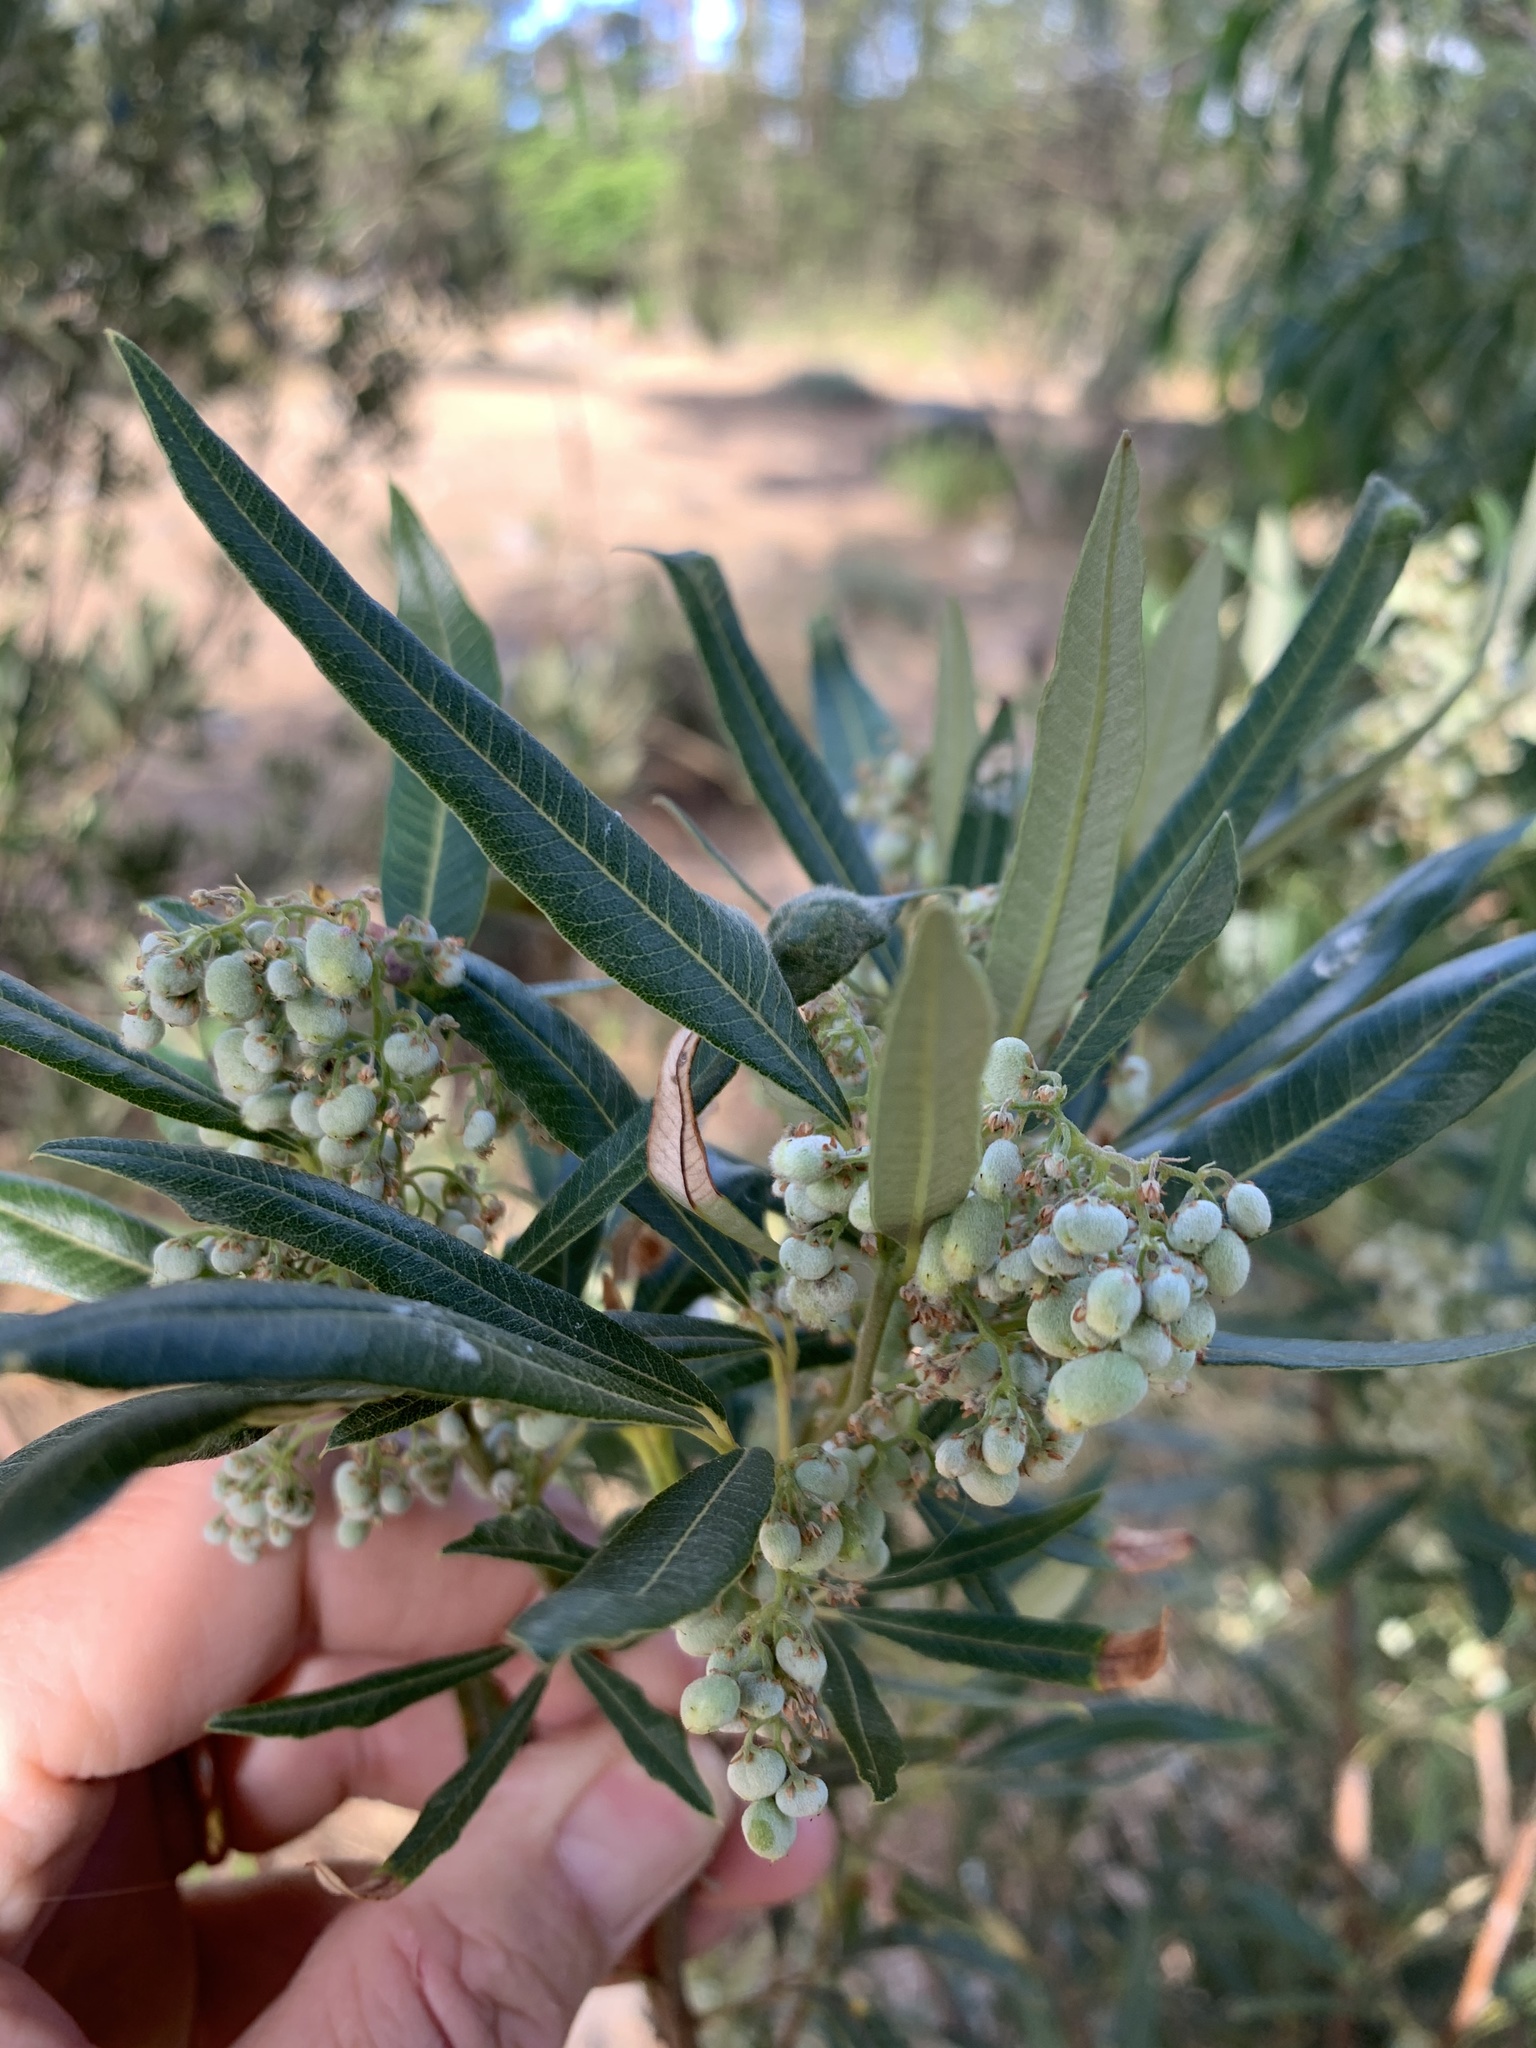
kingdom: Plantae
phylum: Tracheophyta
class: Magnoliopsida
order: Sapindales
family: Anacardiaceae
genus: Searsia
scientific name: Searsia angustifolia
